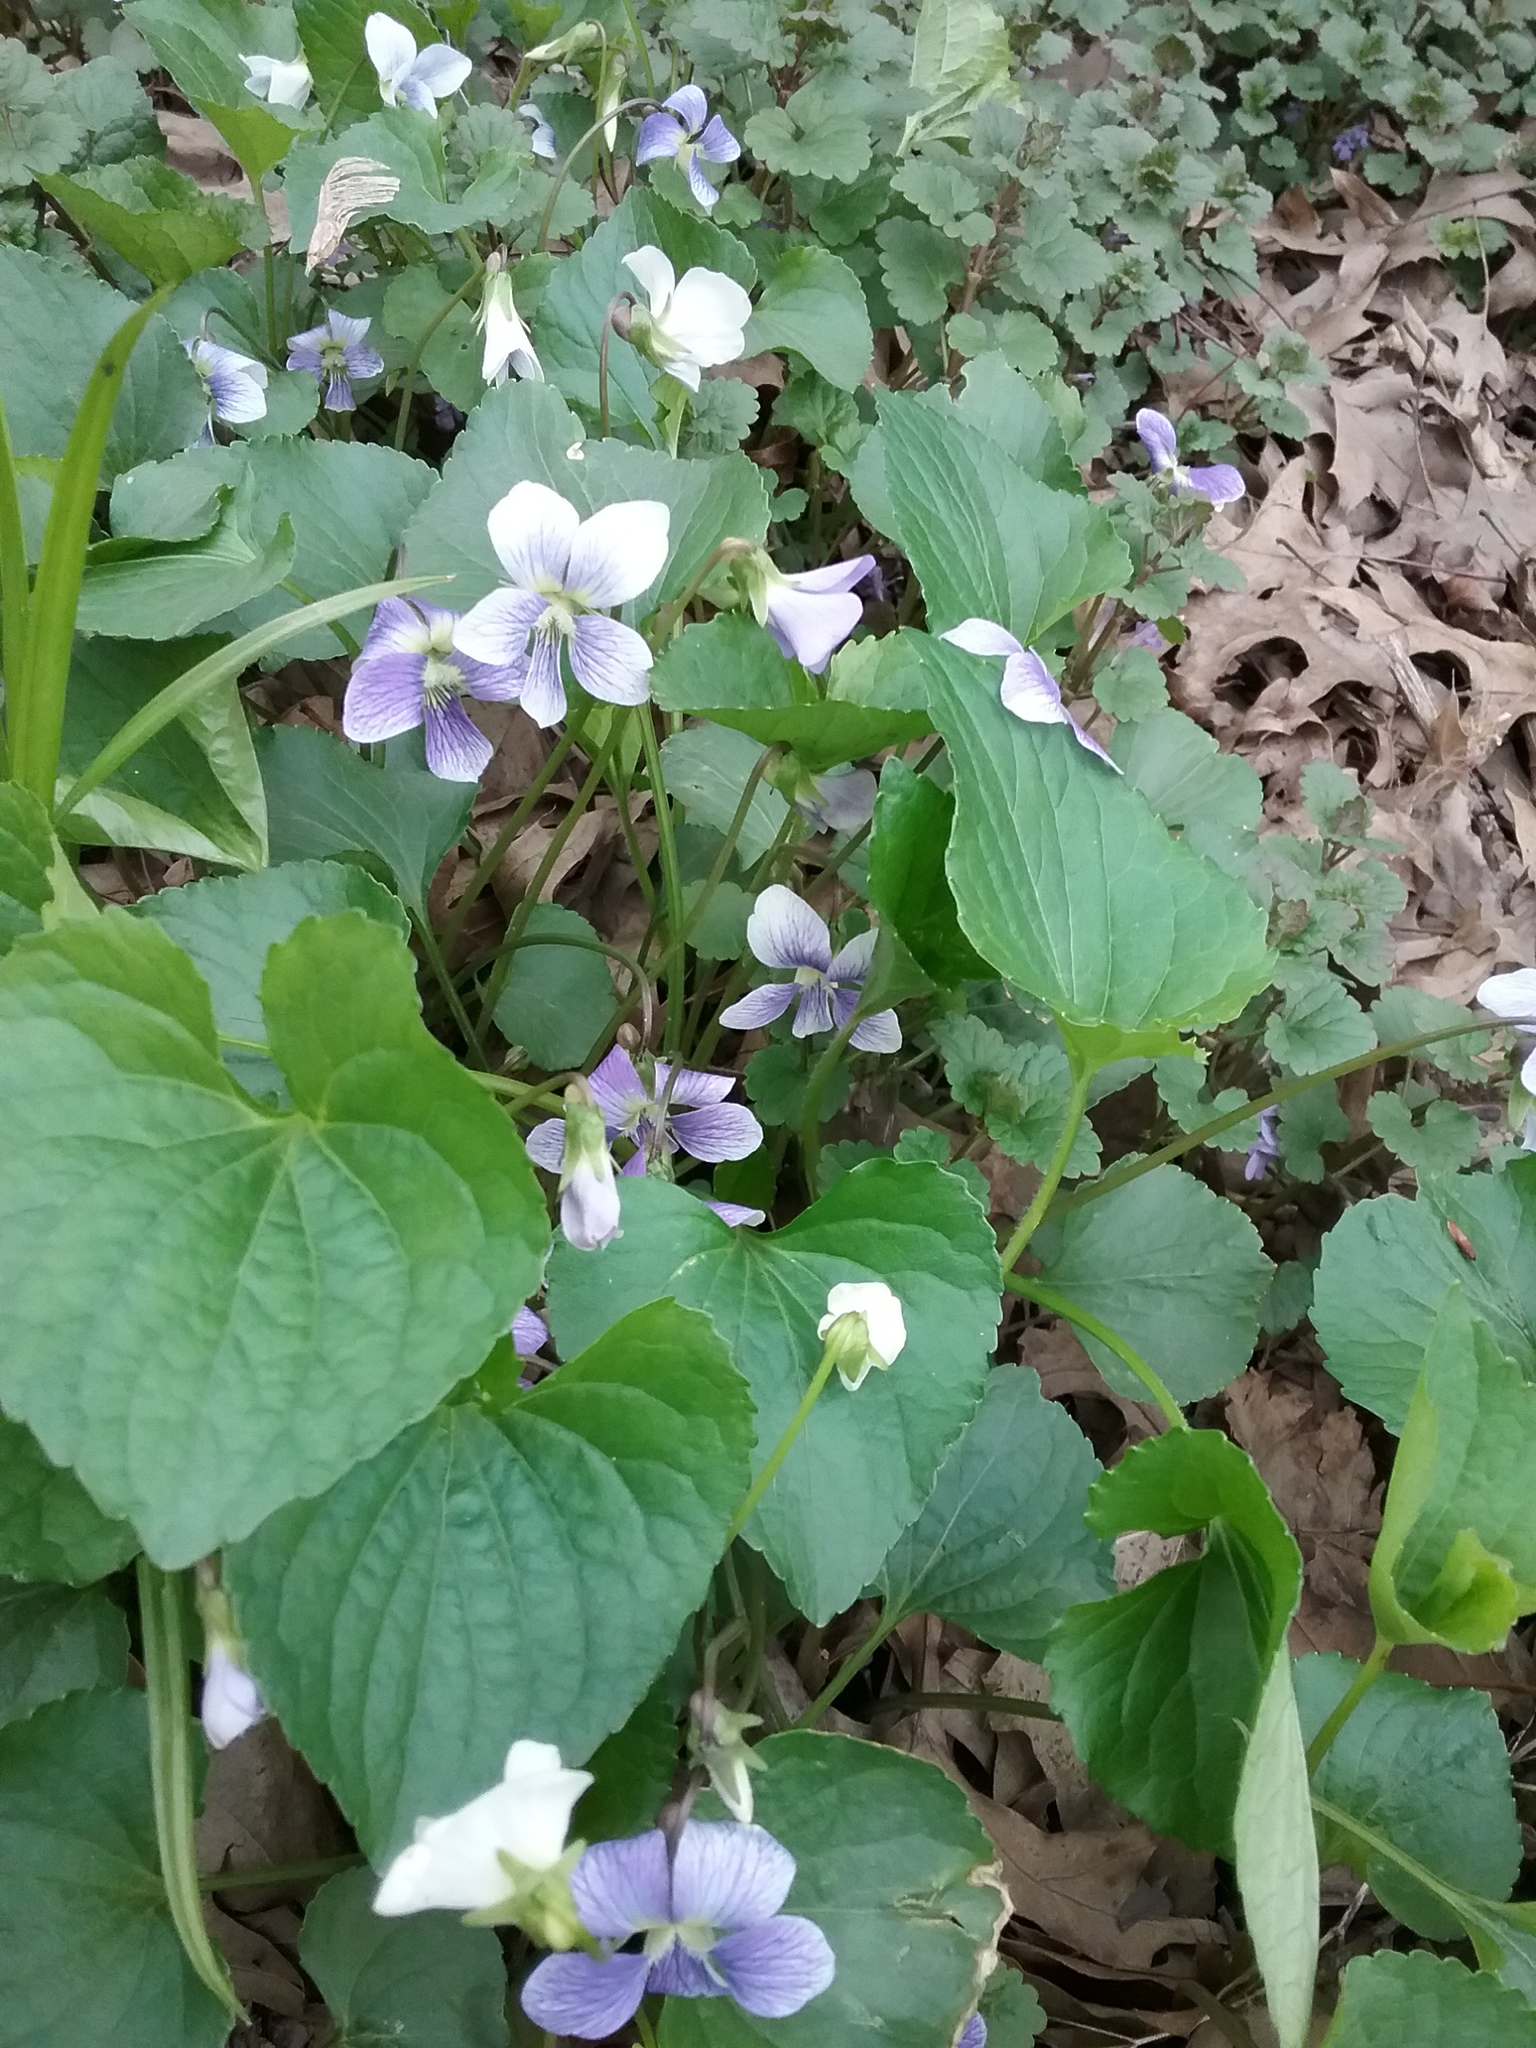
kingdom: Plantae
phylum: Tracheophyta
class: Magnoliopsida
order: Malpighiales
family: Violaceae
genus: Viola
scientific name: Viola sororia
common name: Dooryard violet
